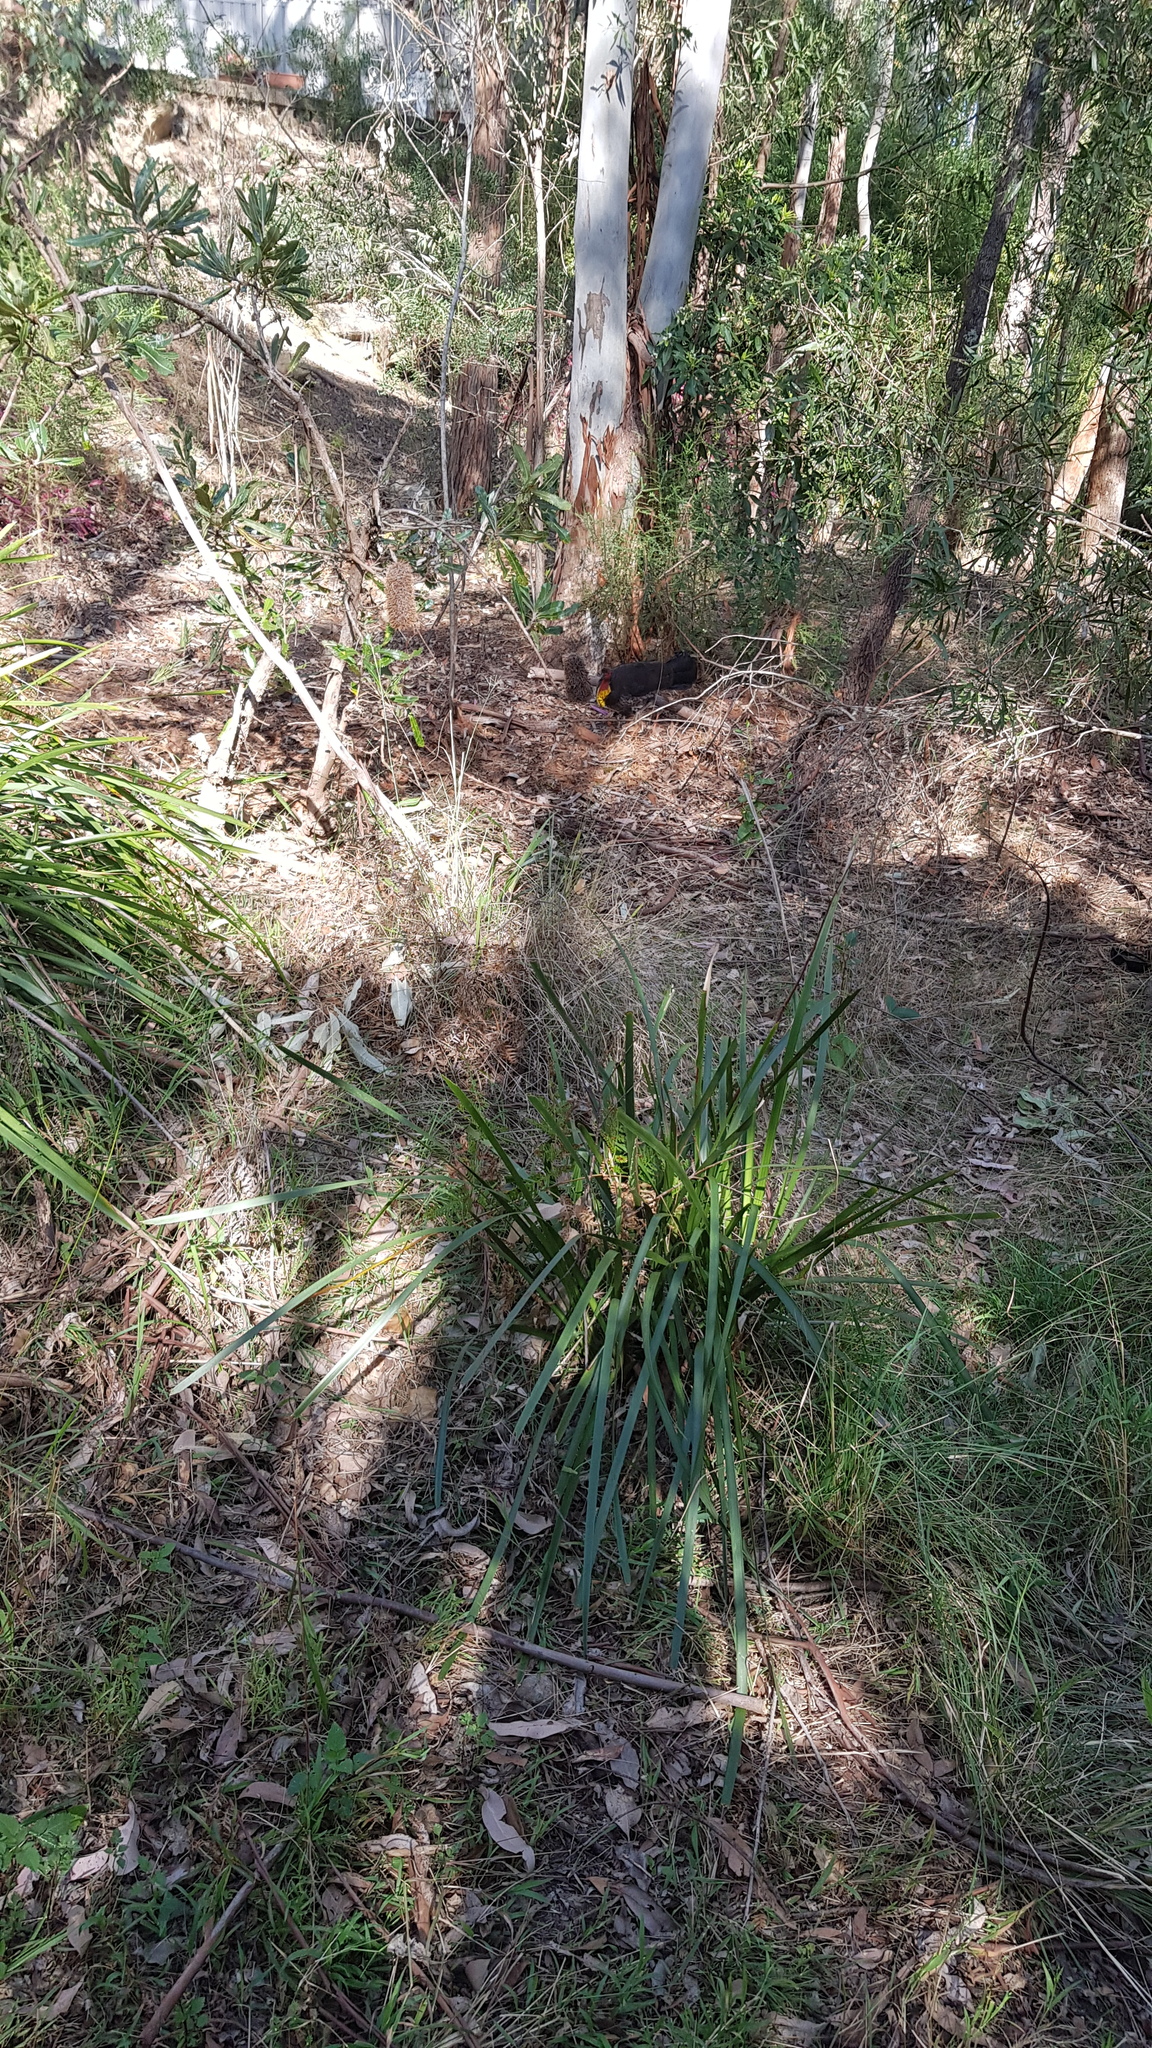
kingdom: Animalia
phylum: Chordata
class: Aves
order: Galliformes
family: Megapodiidae
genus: Alectura
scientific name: Alectura lathami
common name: Australian brushturkey
